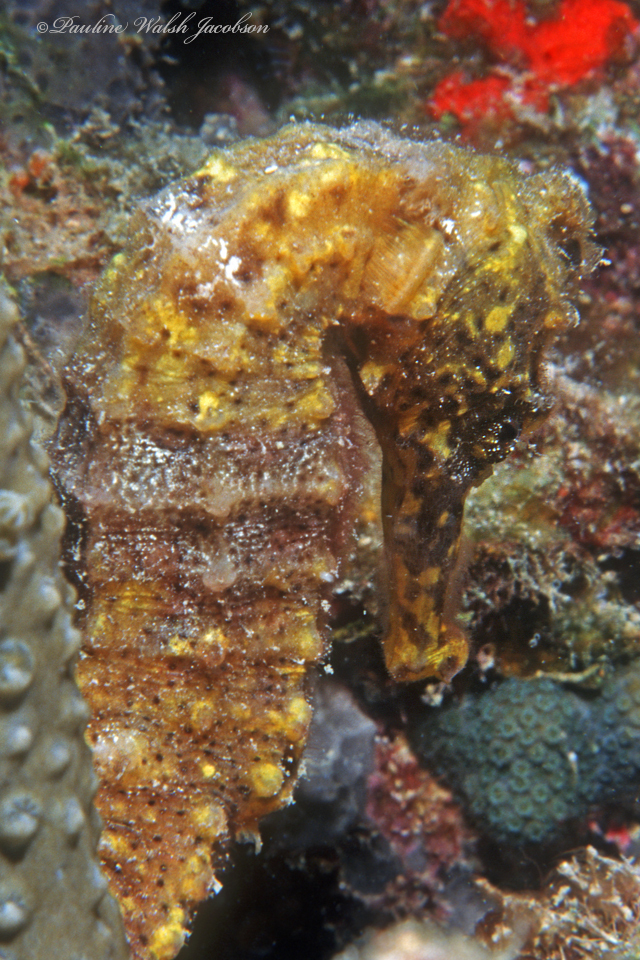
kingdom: Animalia
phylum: Chordata
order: Syngnathiformes
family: Syngnathidae
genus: Hippocampus
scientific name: Hippocampus reidi
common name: Slender seahorse
